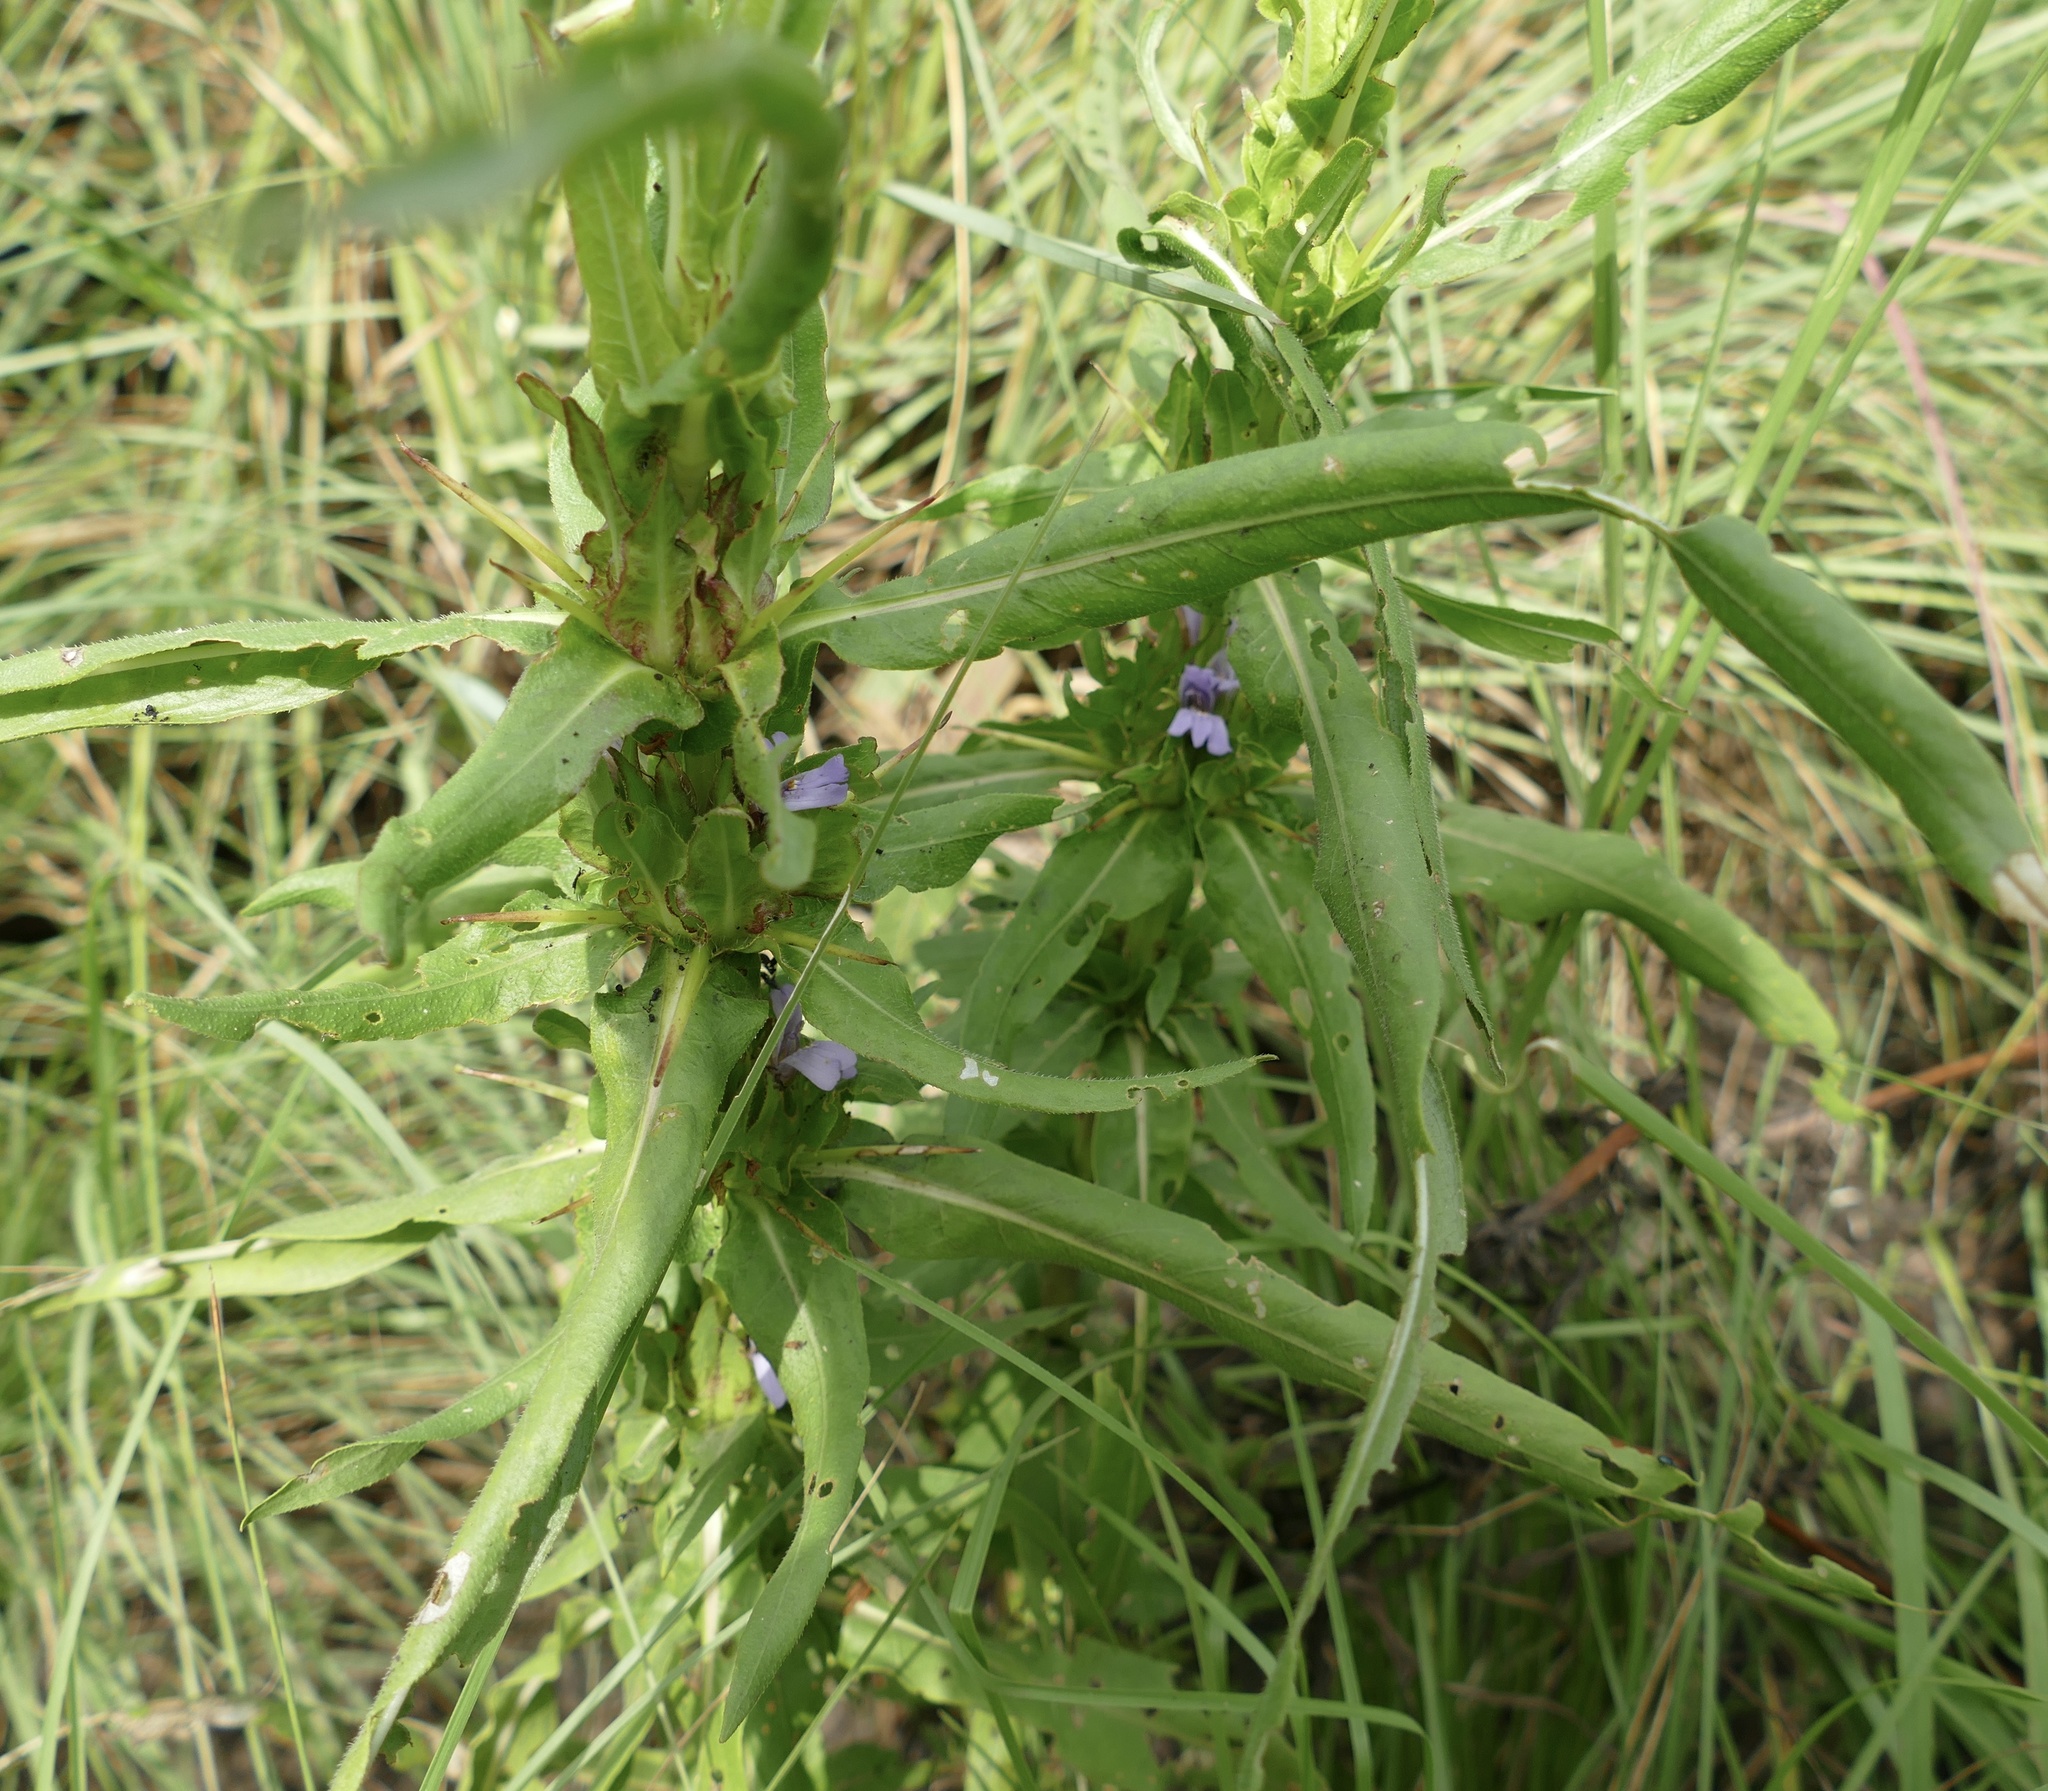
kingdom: Plantae
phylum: Tracheophyta
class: Magnoliopsida
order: Lamiales
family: Acanthaceae
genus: Hygrophila
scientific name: Hygrophila auriculata
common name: Hygrophila
